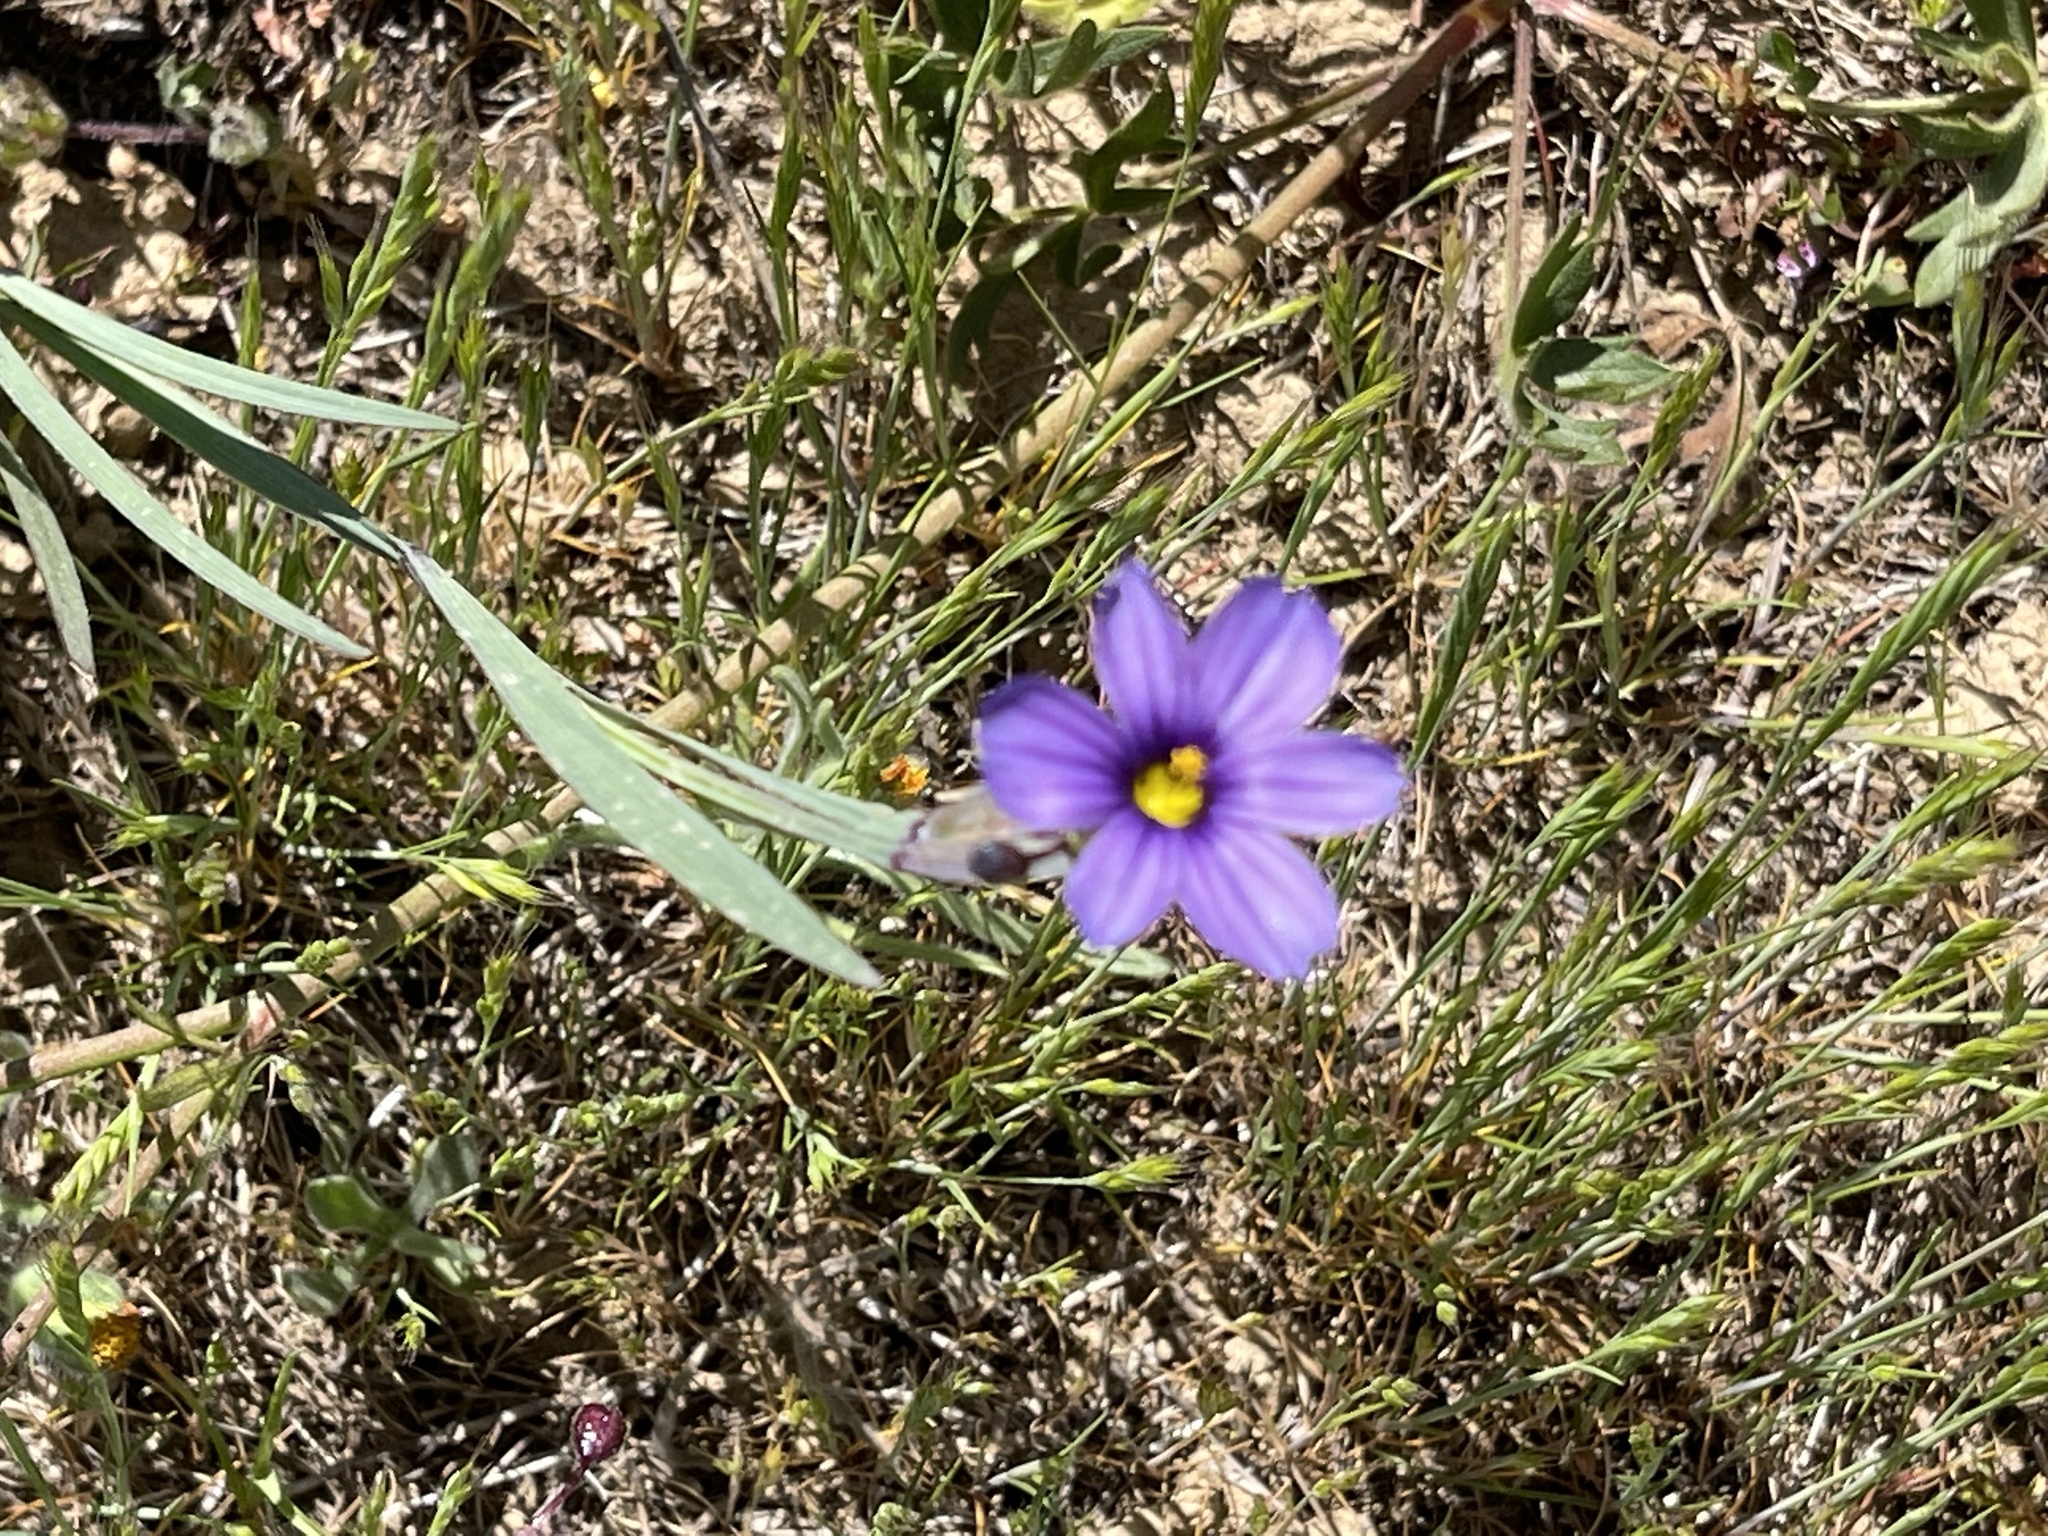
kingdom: Plantae
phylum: Tracheophyta
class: Liliopsida
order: Asparagales
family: Iridaceae
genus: Sisyrinchium
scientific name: Sisyrinchium bellum
